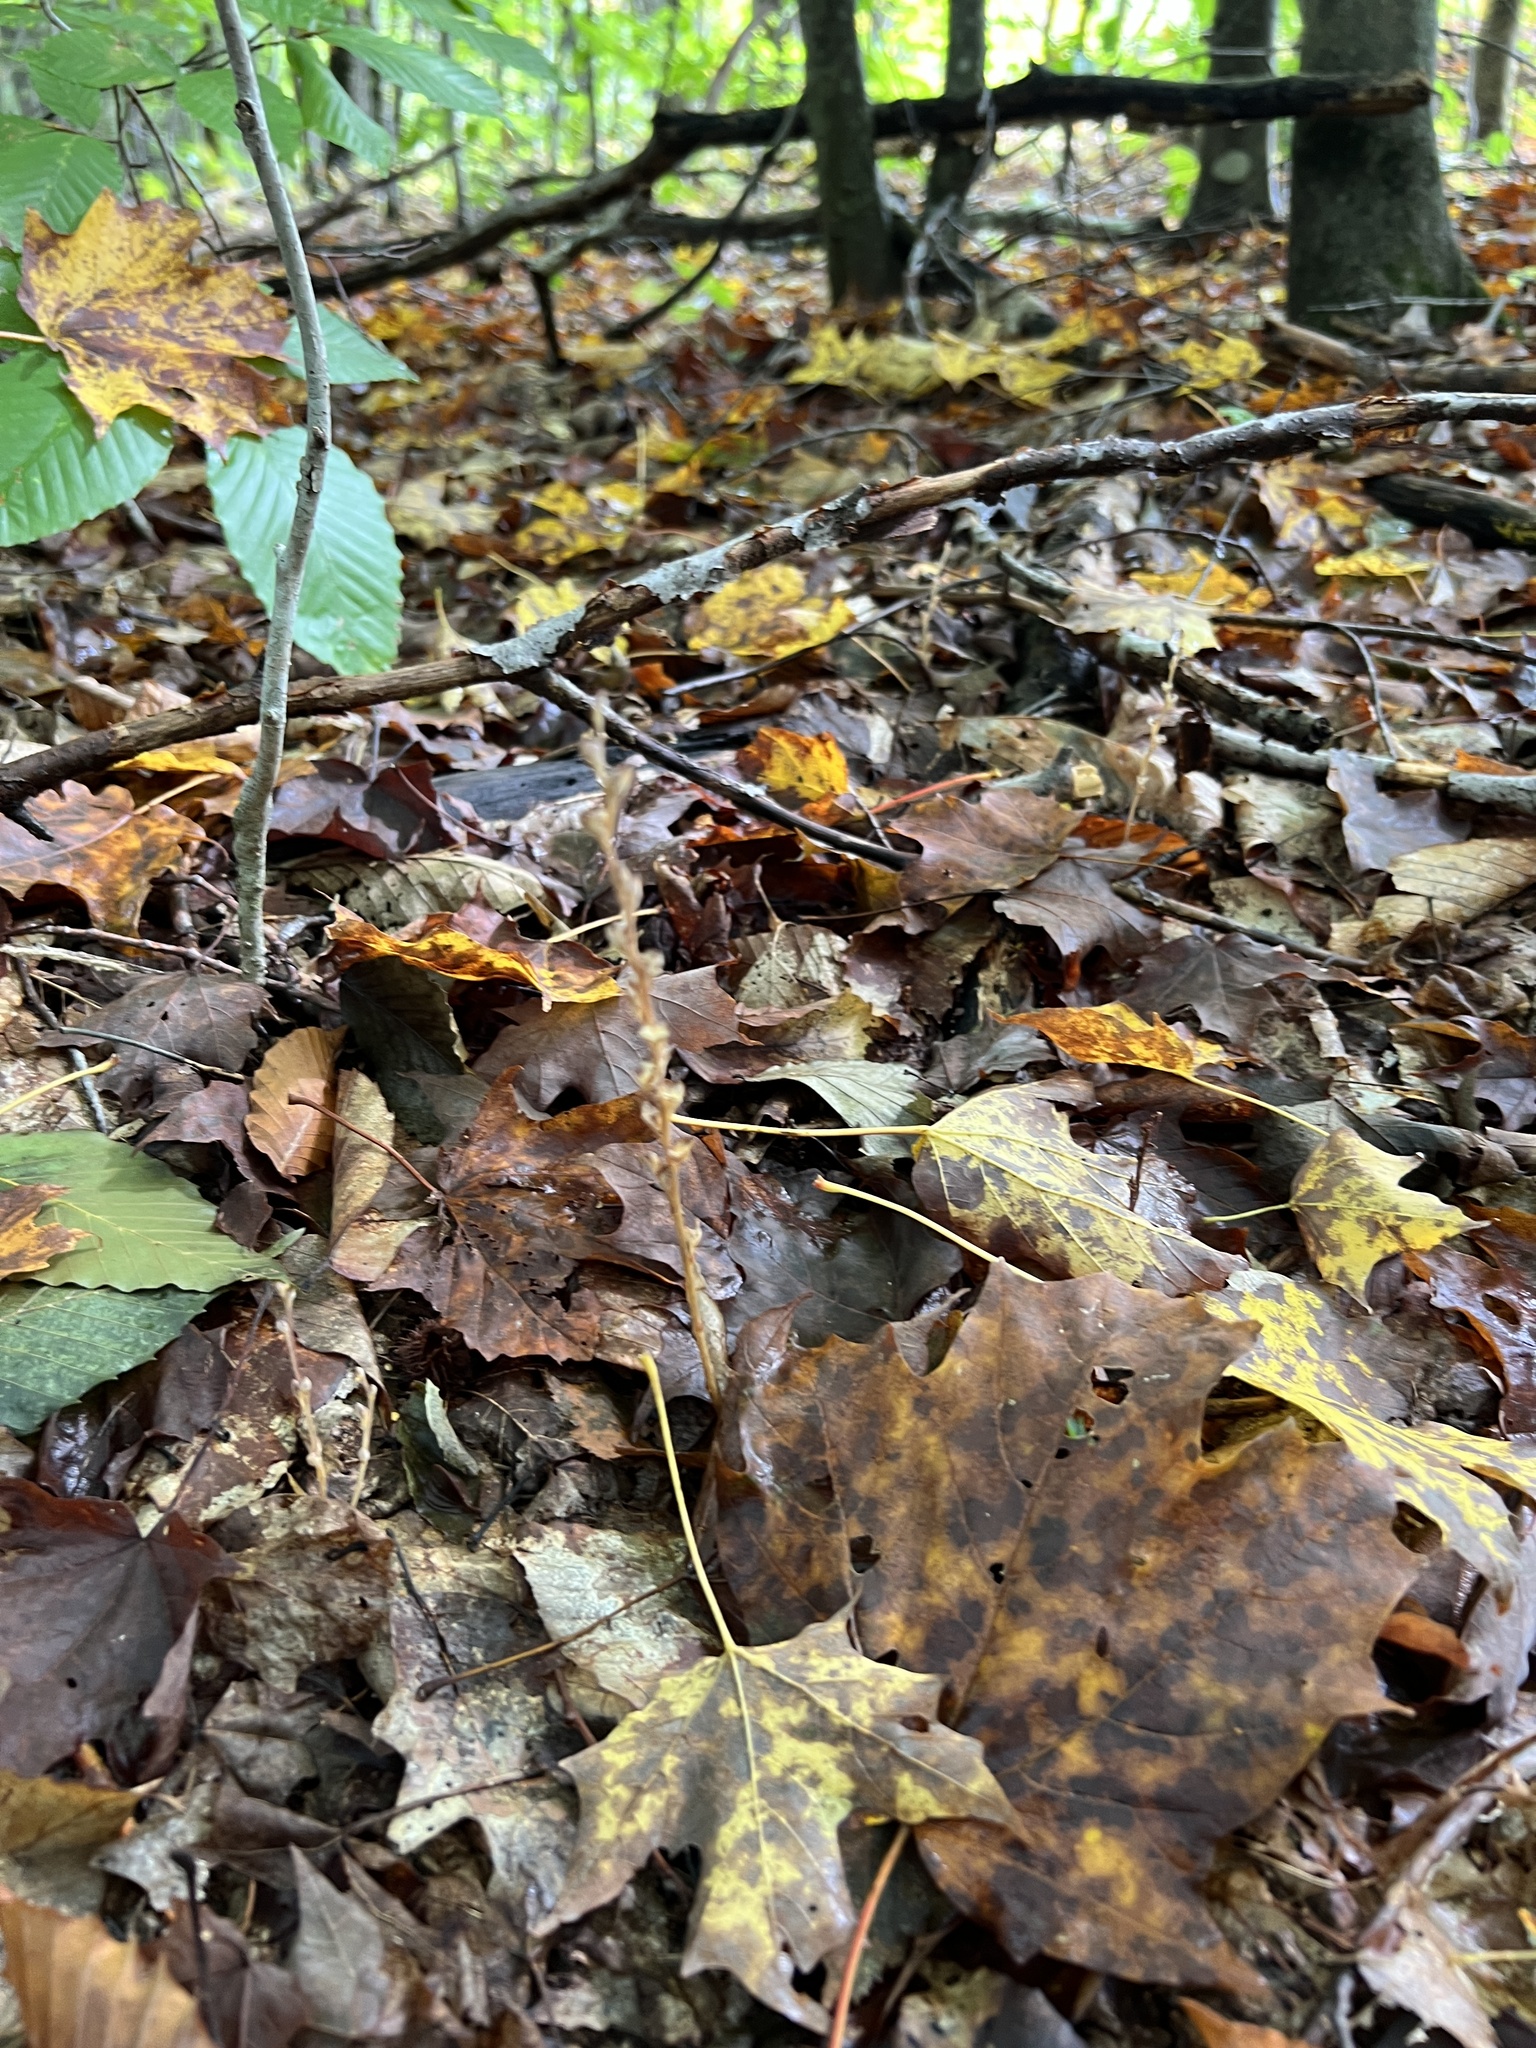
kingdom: Plantae
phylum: Tracheophyta
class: Magnoliopsida
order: Lamiales
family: Orobanchaceae
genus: Epifagus
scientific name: Epifagus virginiana
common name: Beechdrops
